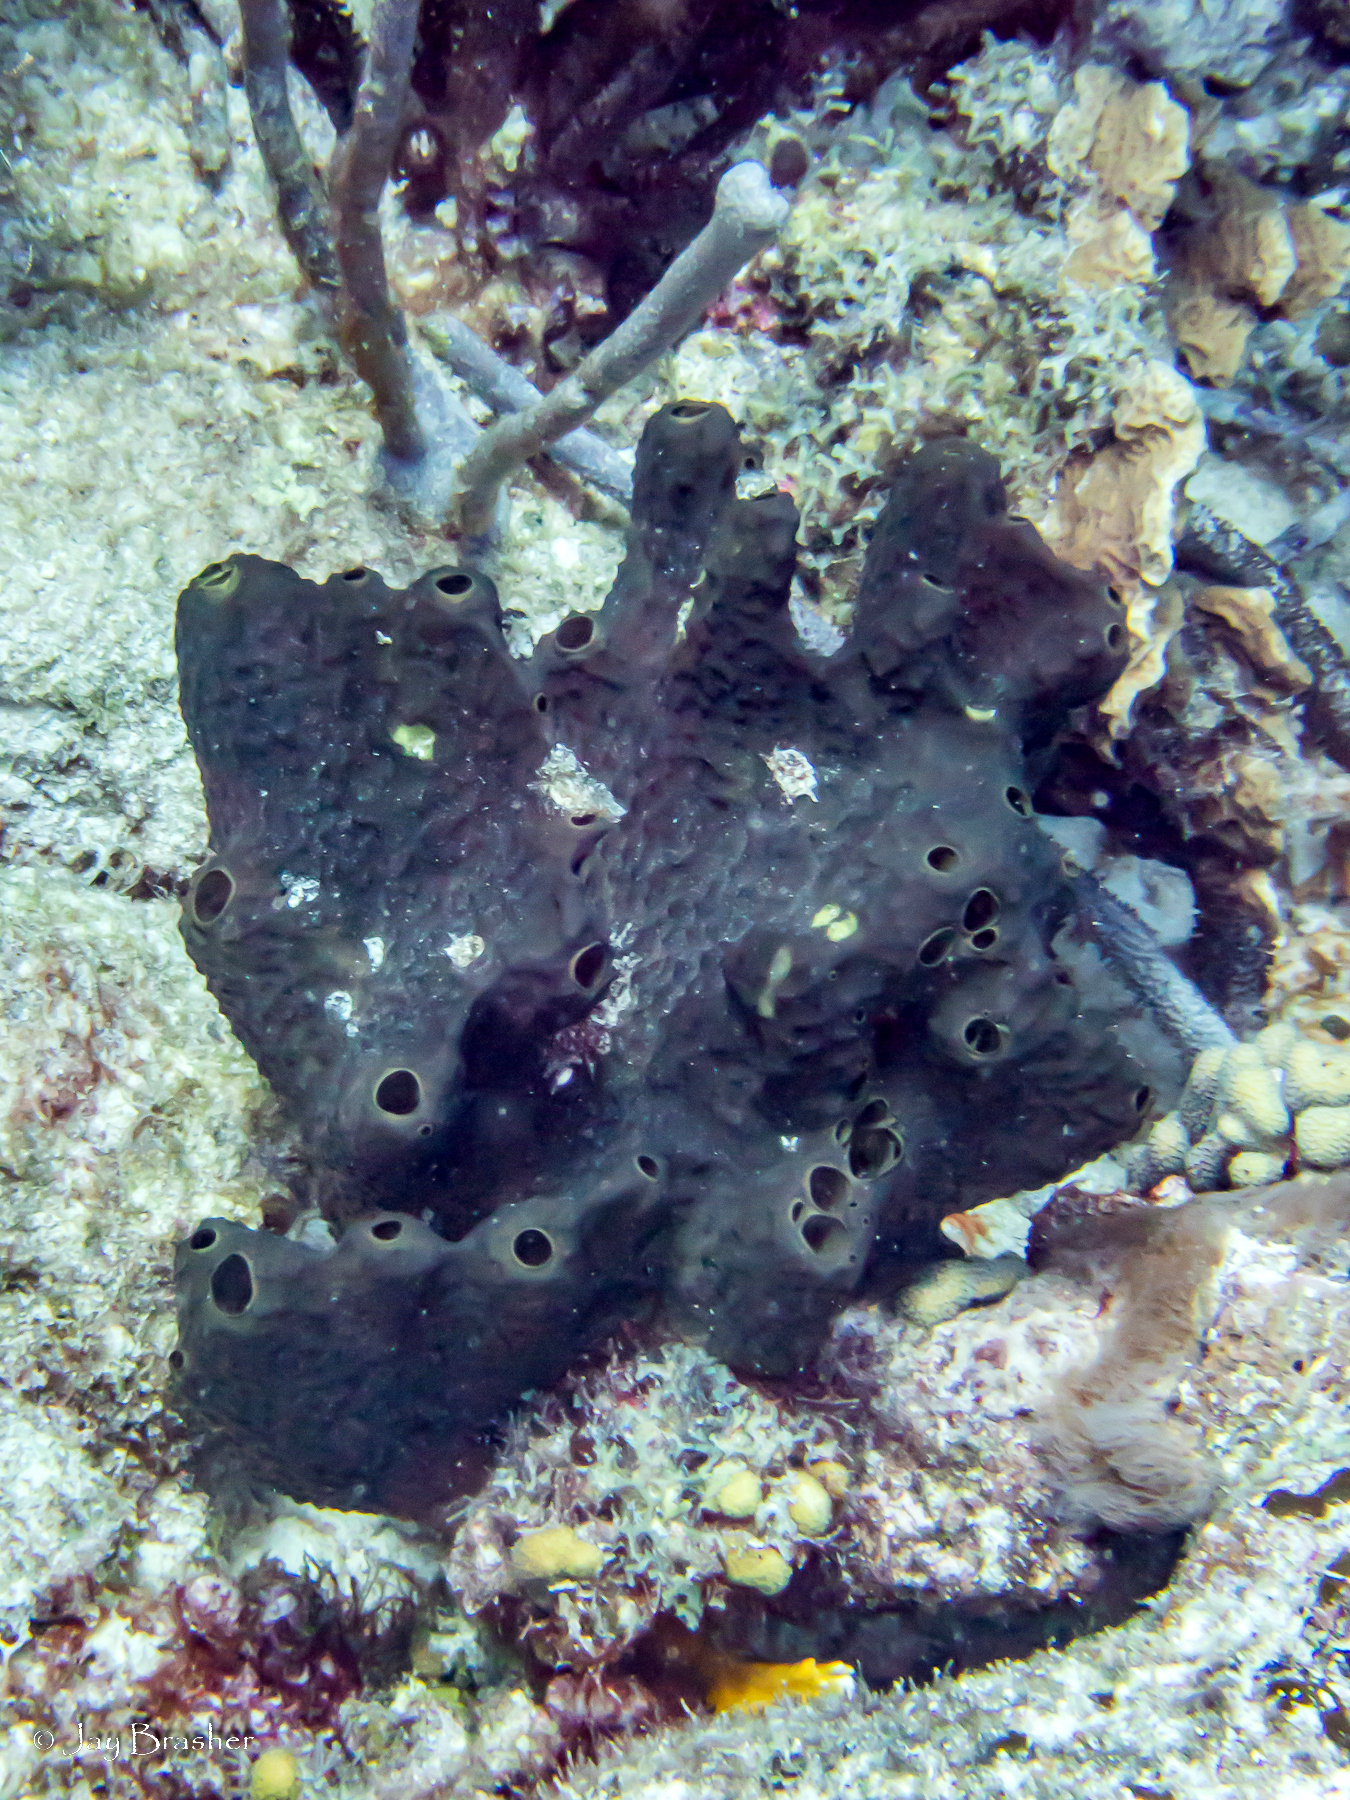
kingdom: Animalia
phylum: Porifera
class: Demospongiae
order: Dictyoceratida
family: Thorectidae
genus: Smenospongia
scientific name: Smenospongia conulosa
